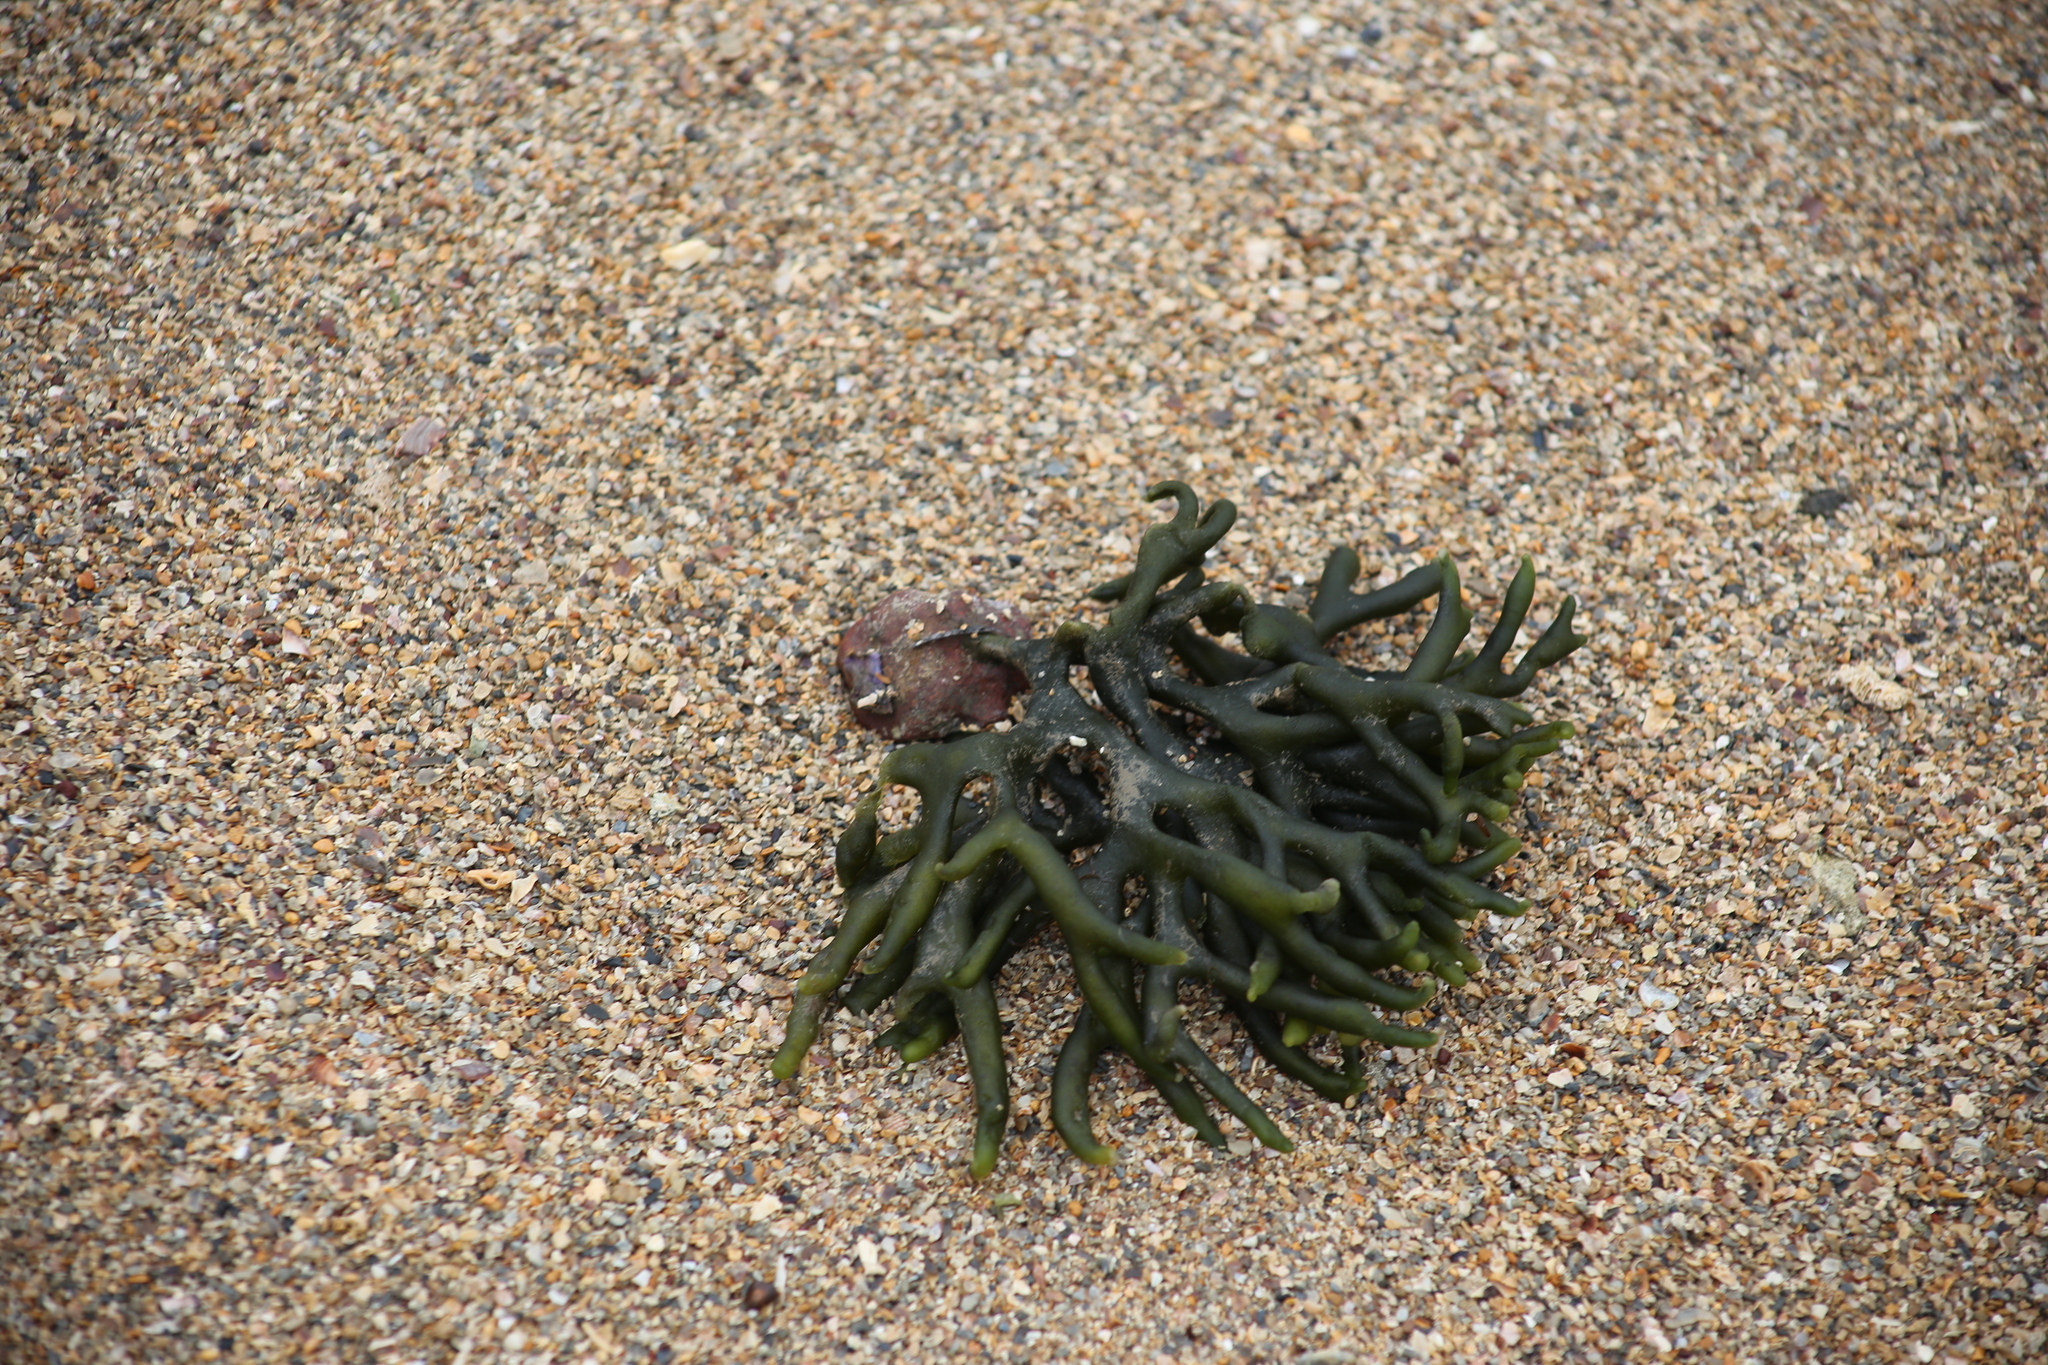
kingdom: Plantae
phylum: Chlorophyta
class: Ulvophyceae
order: Bryopsidales
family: Codiaceae
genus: Codium
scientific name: Codium fragile
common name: Dead man's fingers
